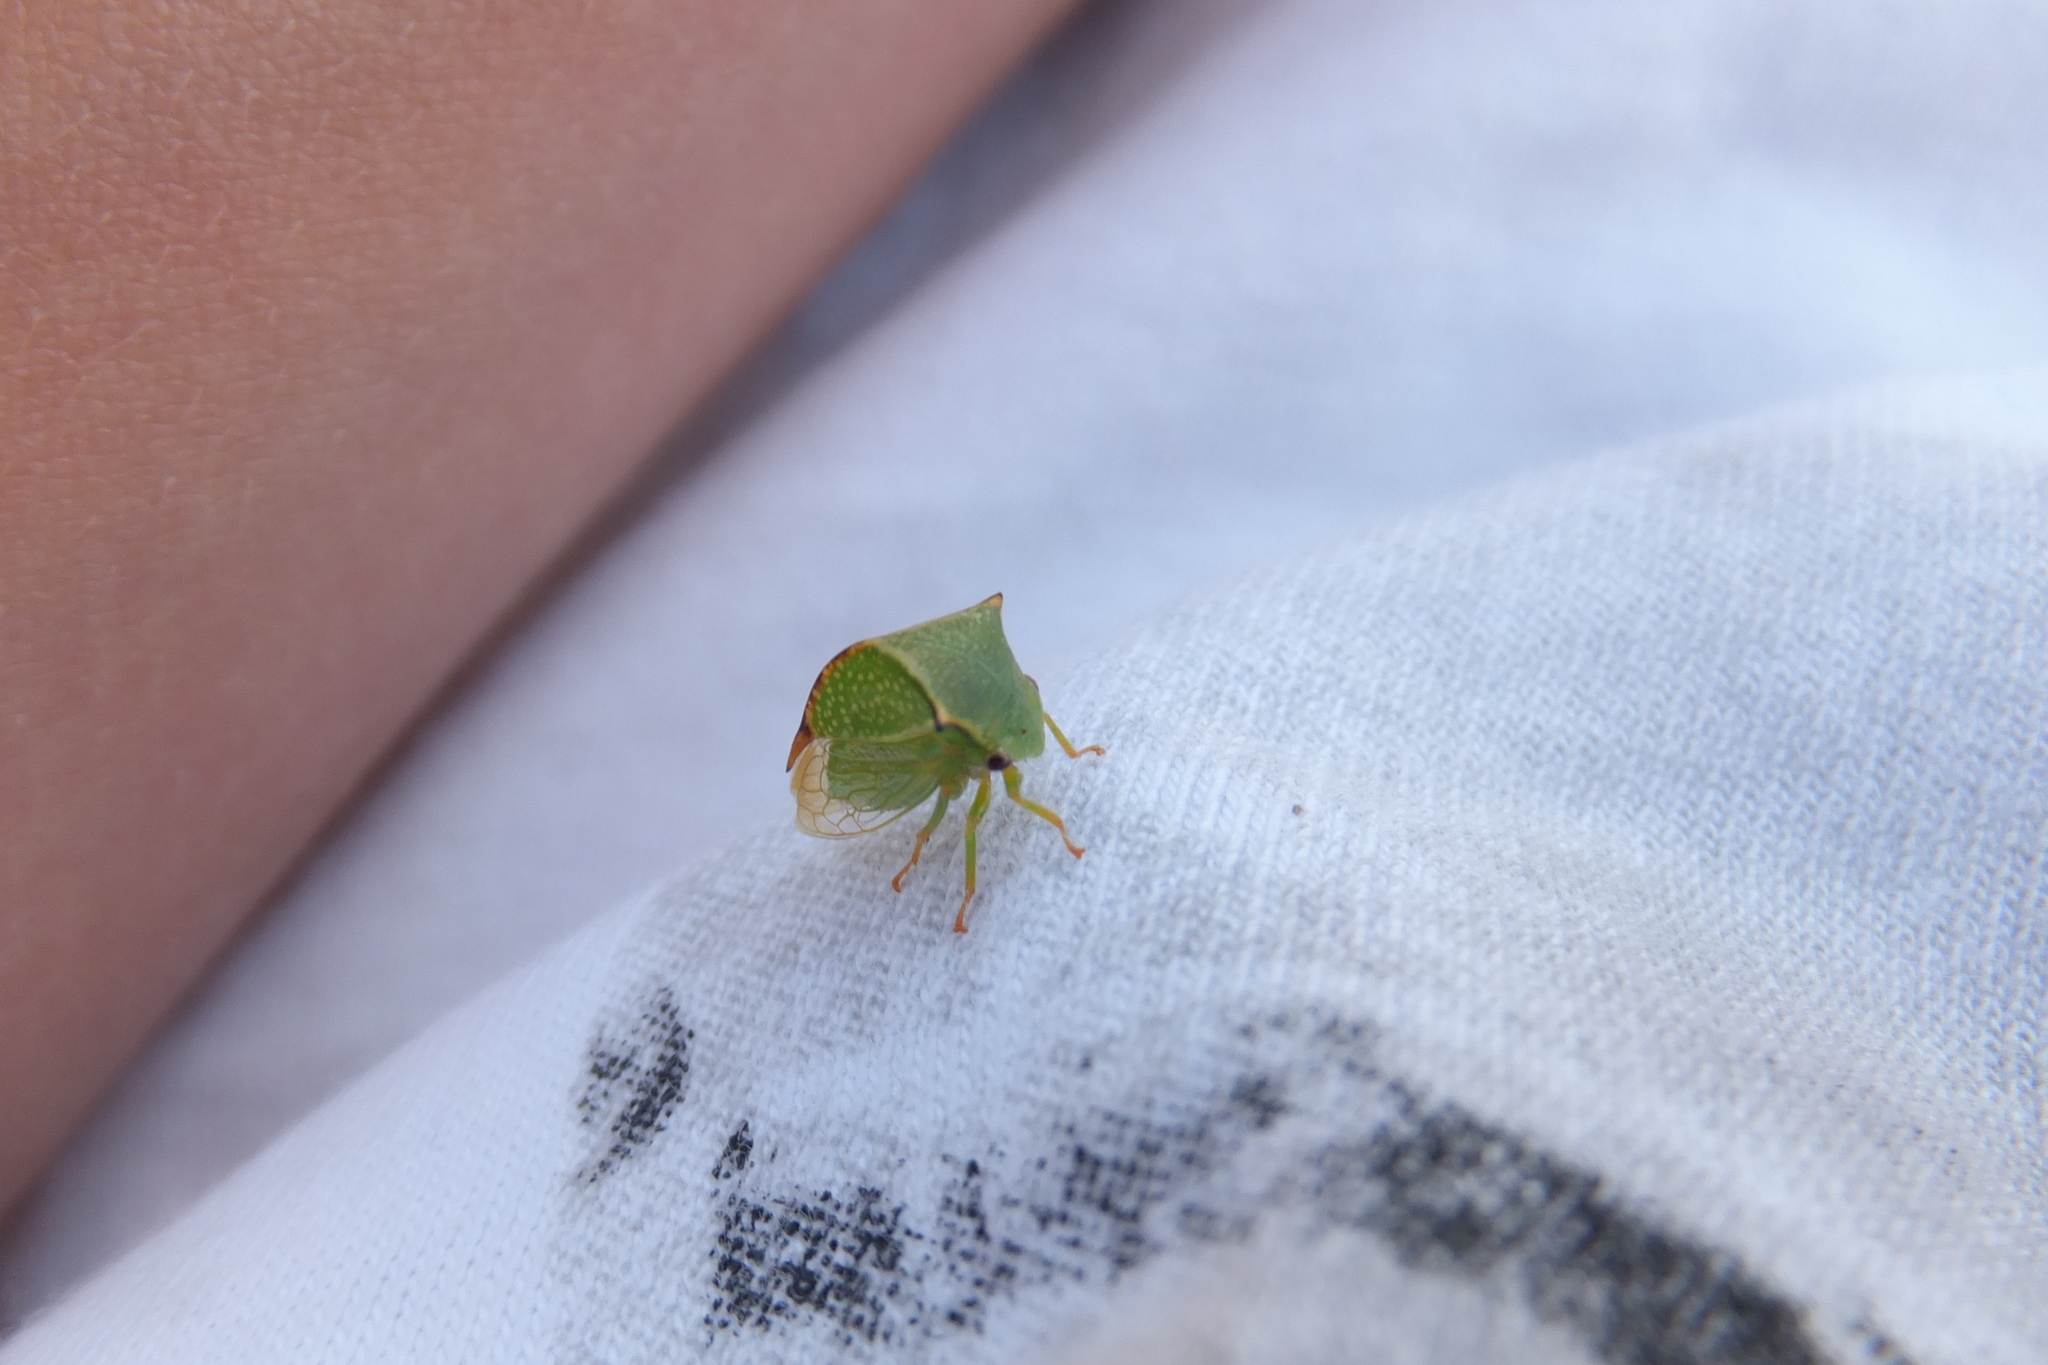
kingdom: Animalia
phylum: Arthropoda
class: Insecta
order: Hemiptera
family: Membracidae
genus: Stictocephala
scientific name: Stictocephala bisonia
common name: American buffalo treehopper
